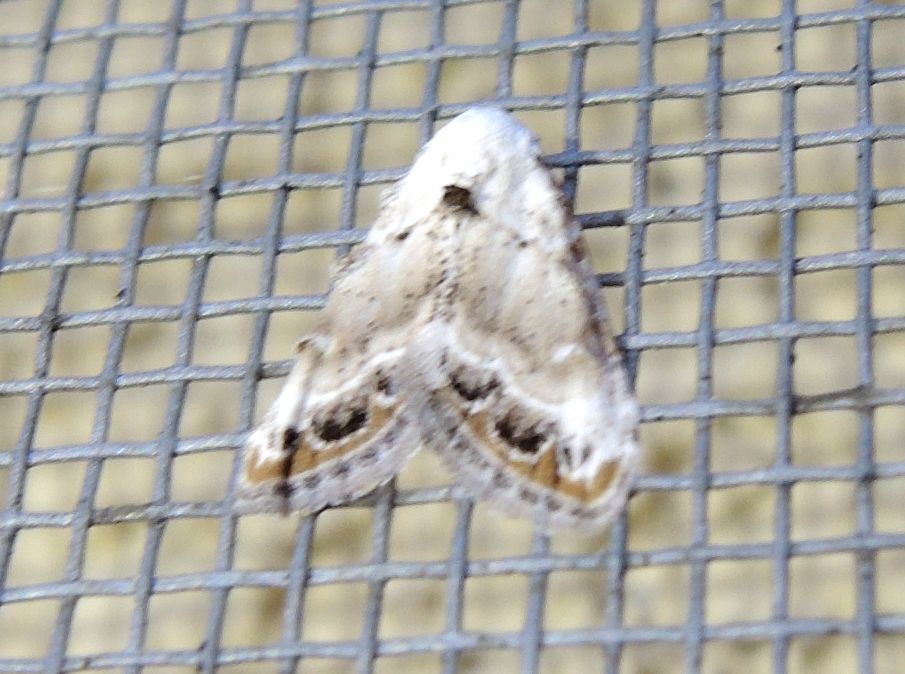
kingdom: Animalia
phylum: Arthropoda
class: Insecta
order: Lepidoptera
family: Nolidae
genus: Nola
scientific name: Nola chlamitulalis
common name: Jersey black arches
